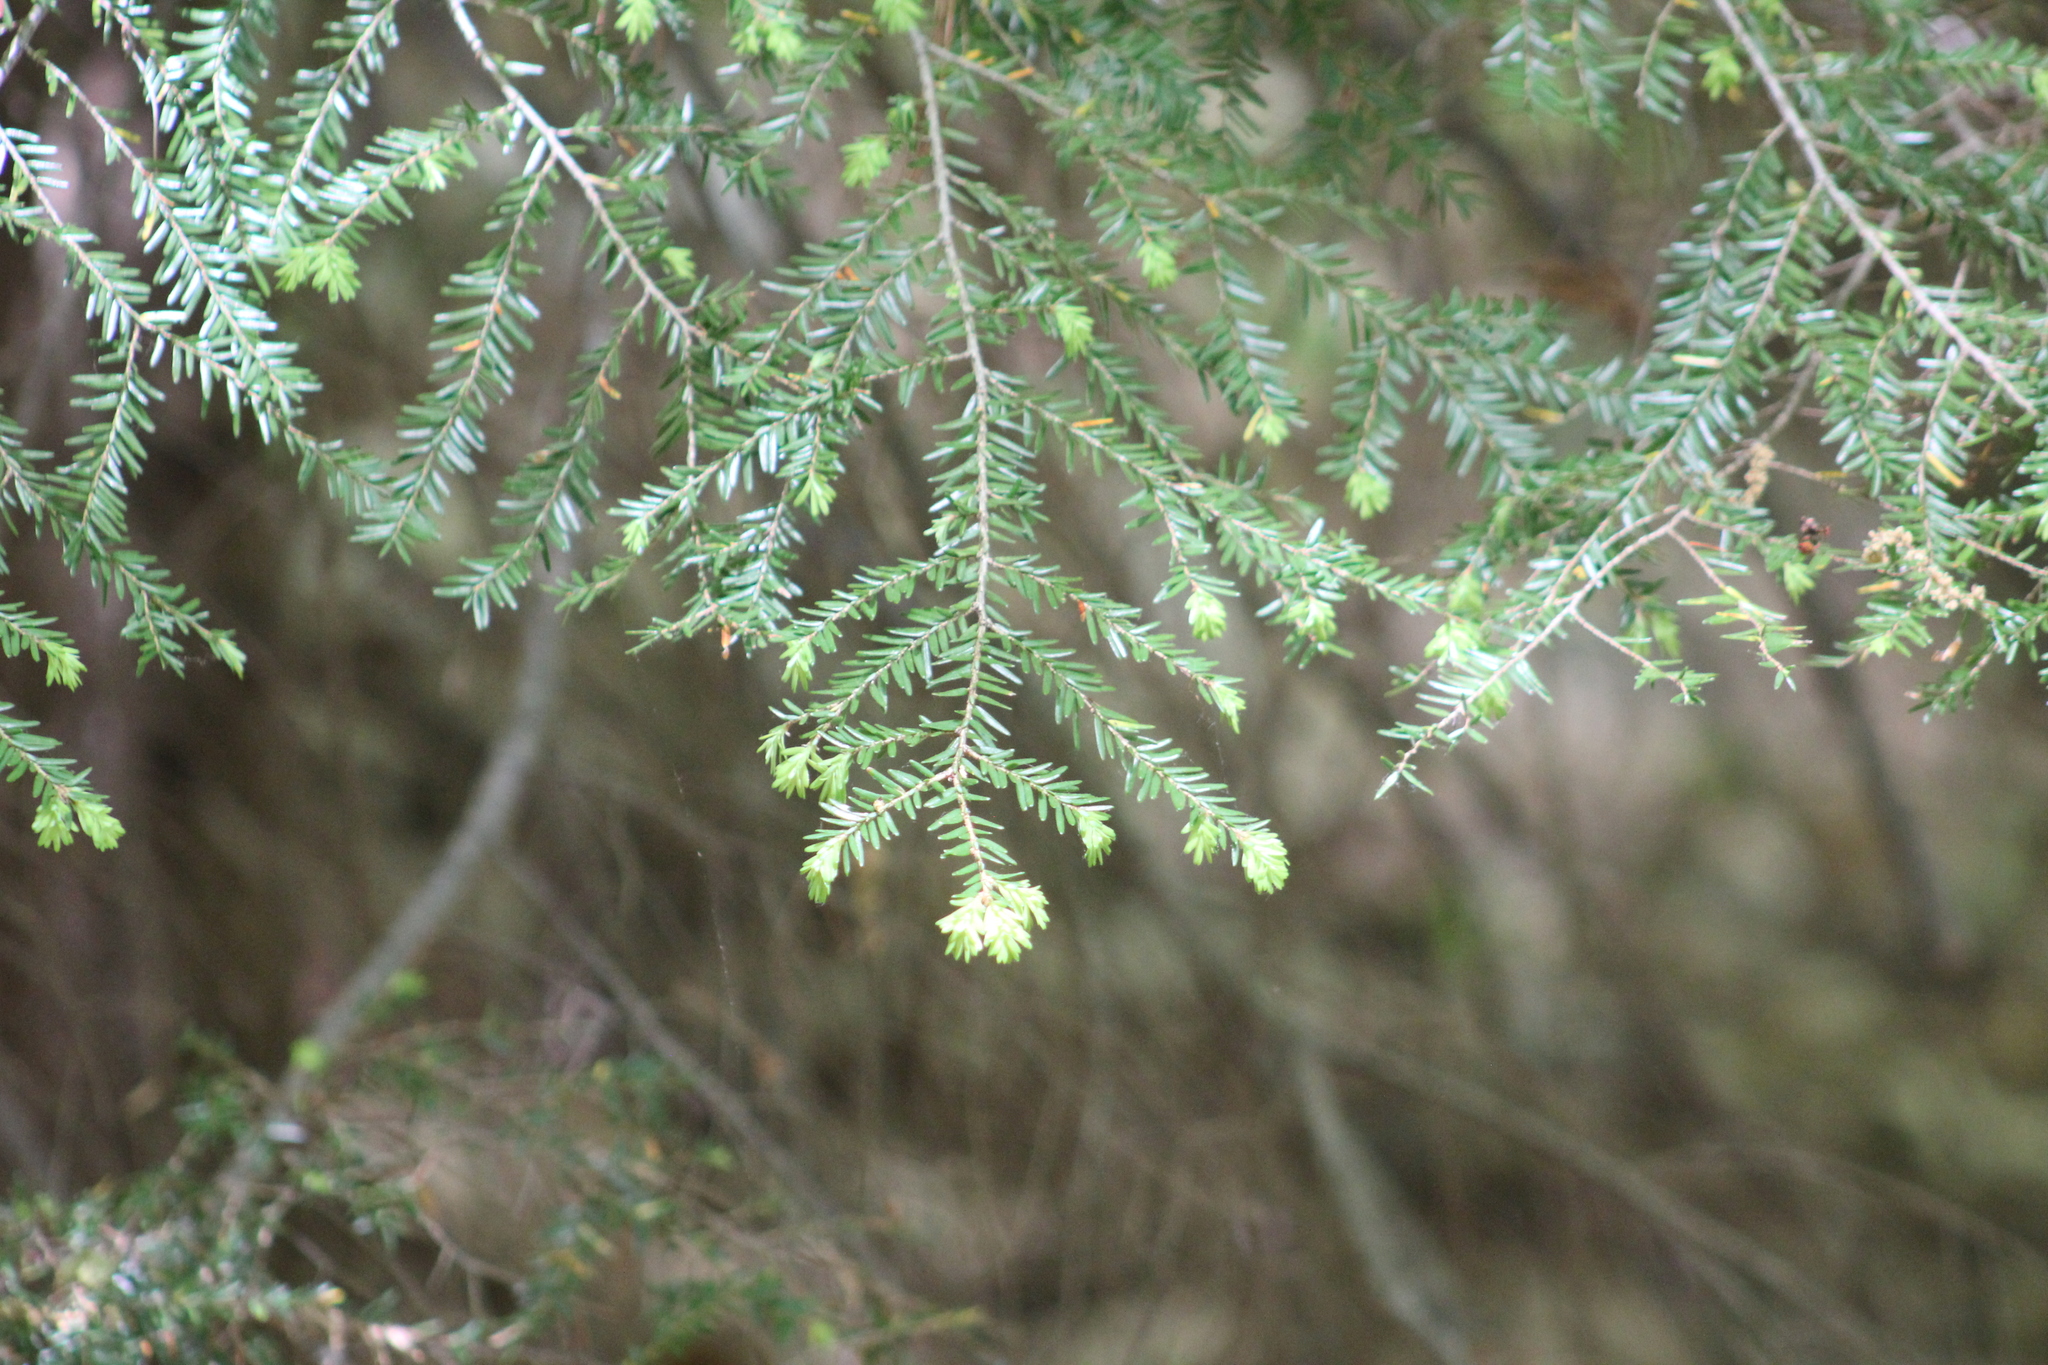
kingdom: Plantae
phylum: Tracheophyta
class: Pinopsida
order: Pinales
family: Pinaceae
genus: Tsuga
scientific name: Tsuga canadensis
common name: Eastern hemlock
